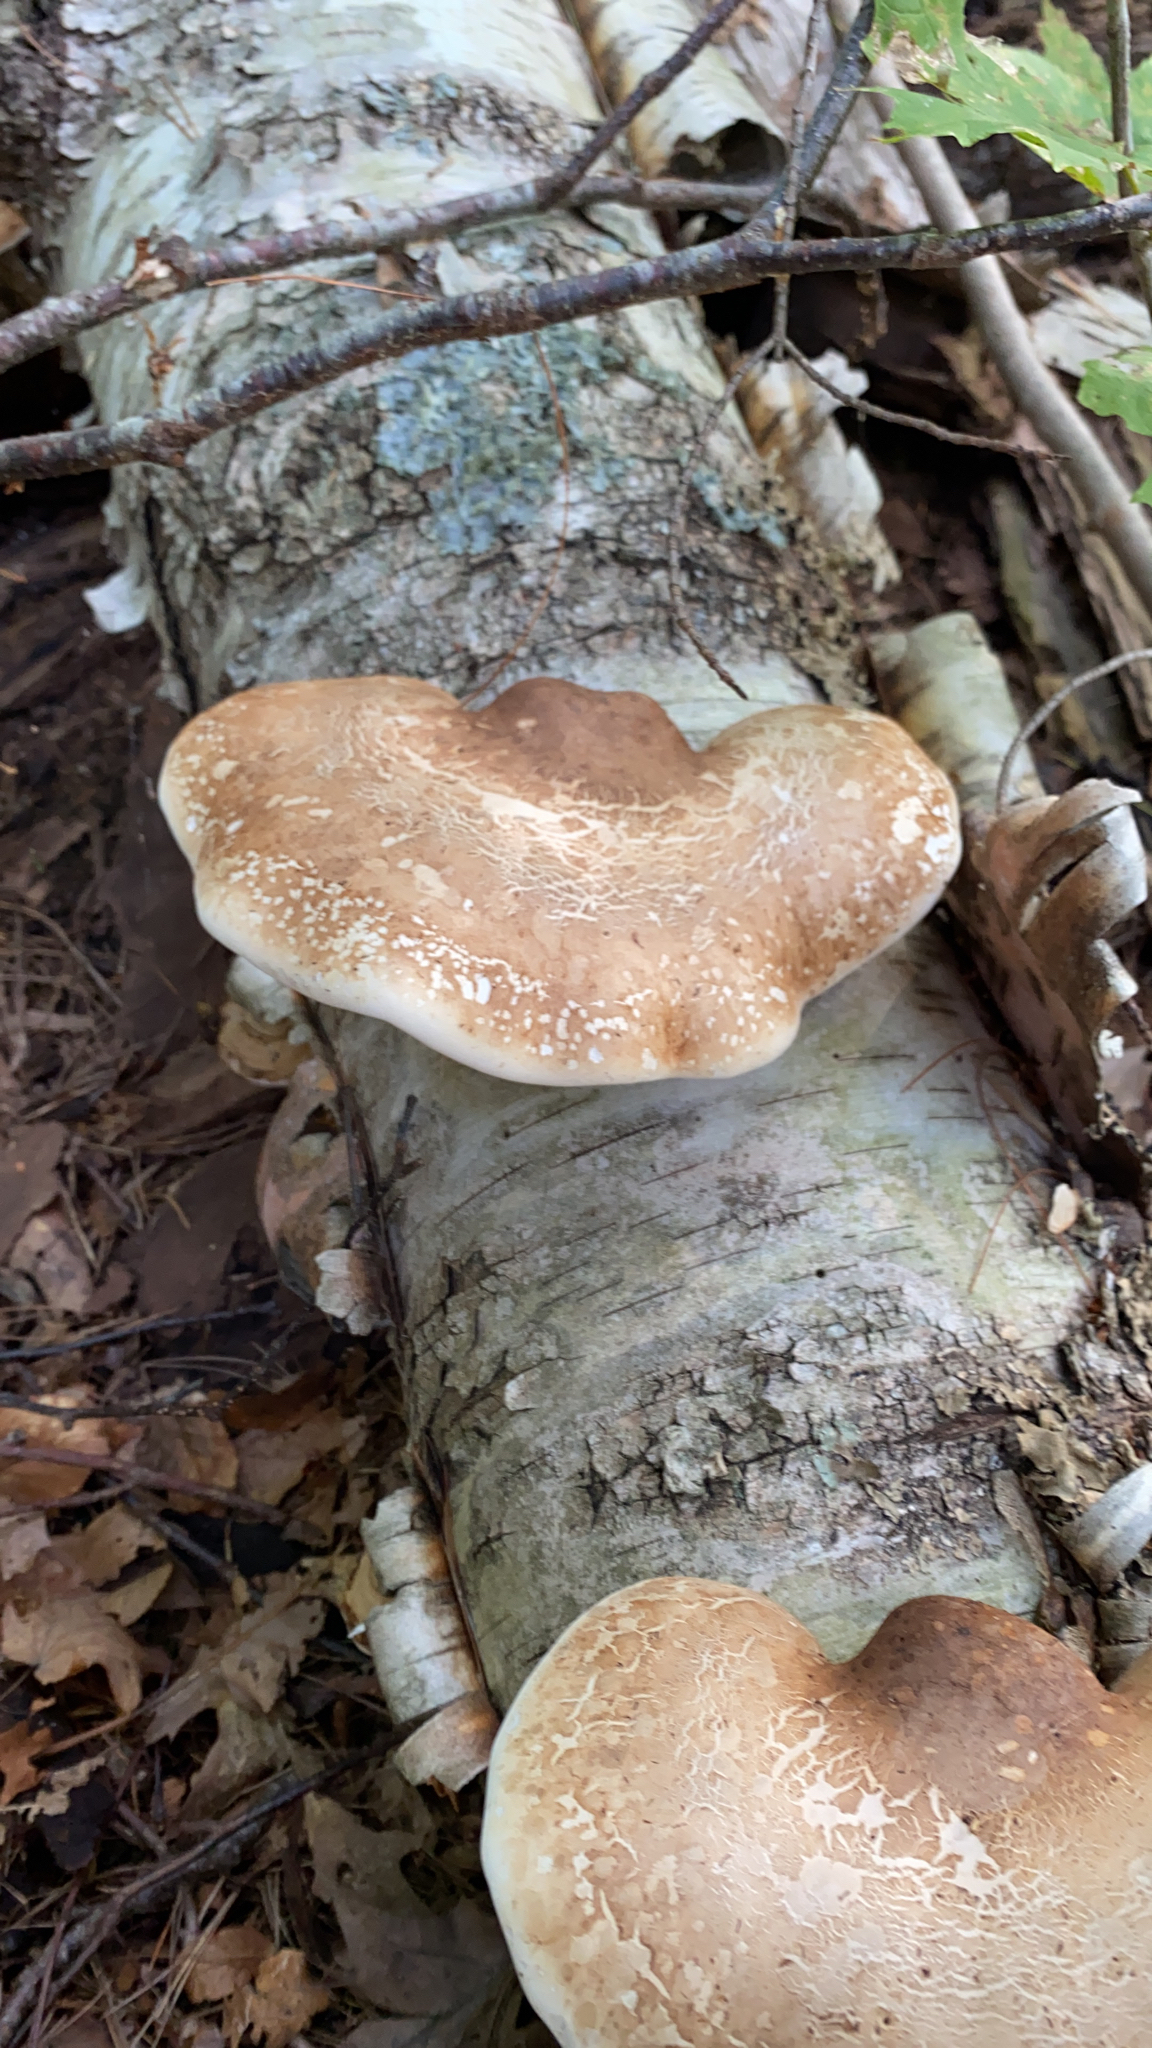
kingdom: Fungi
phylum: Basidiomycota
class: Agaricomycetes
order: Polyporales
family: Fomitopsidaceae
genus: Fomitopsis
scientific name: Fomitopsis betulina
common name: Birch polypore
